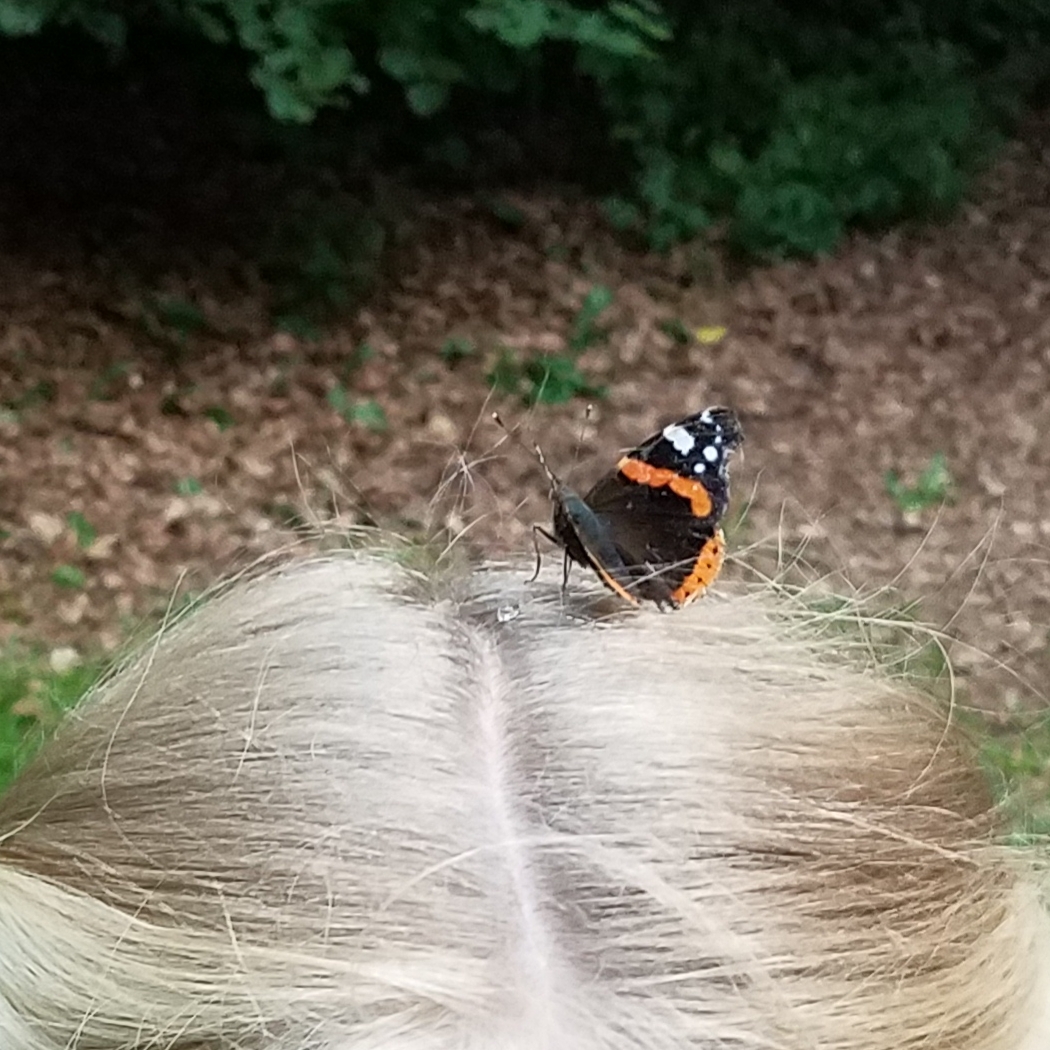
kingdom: Animalia
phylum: Arthropoda
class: Insecta
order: Lepidoptera
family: Nymphalidae
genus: Vanessa
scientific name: Vanessa atalanta
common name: Red admiral
